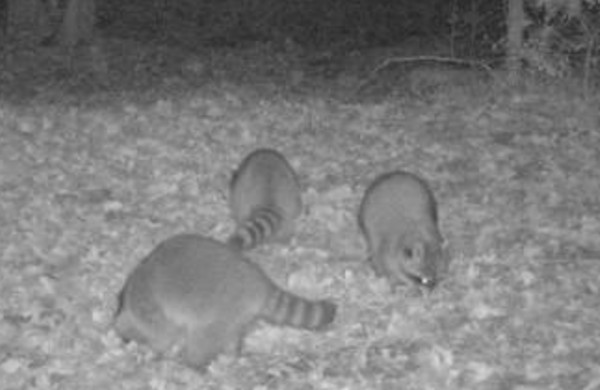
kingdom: Animalia
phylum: Chordata
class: Mammalia
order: Carnivora
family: Procyonidae
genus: Procyon
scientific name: Procyon lotor
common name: Raccoon
